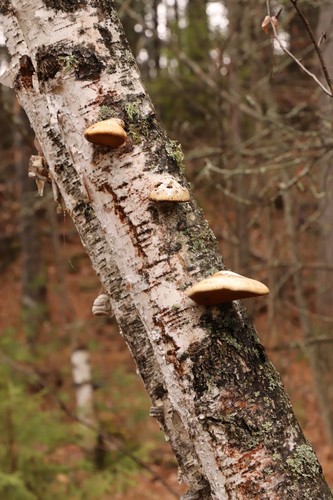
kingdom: Fungi
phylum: Basidiomycota
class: Agaricomycetes
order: Polyporales
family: Fomitopsidaceae
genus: Fomitopsis
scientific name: Fomitopsis betulina
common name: Birch polypore
